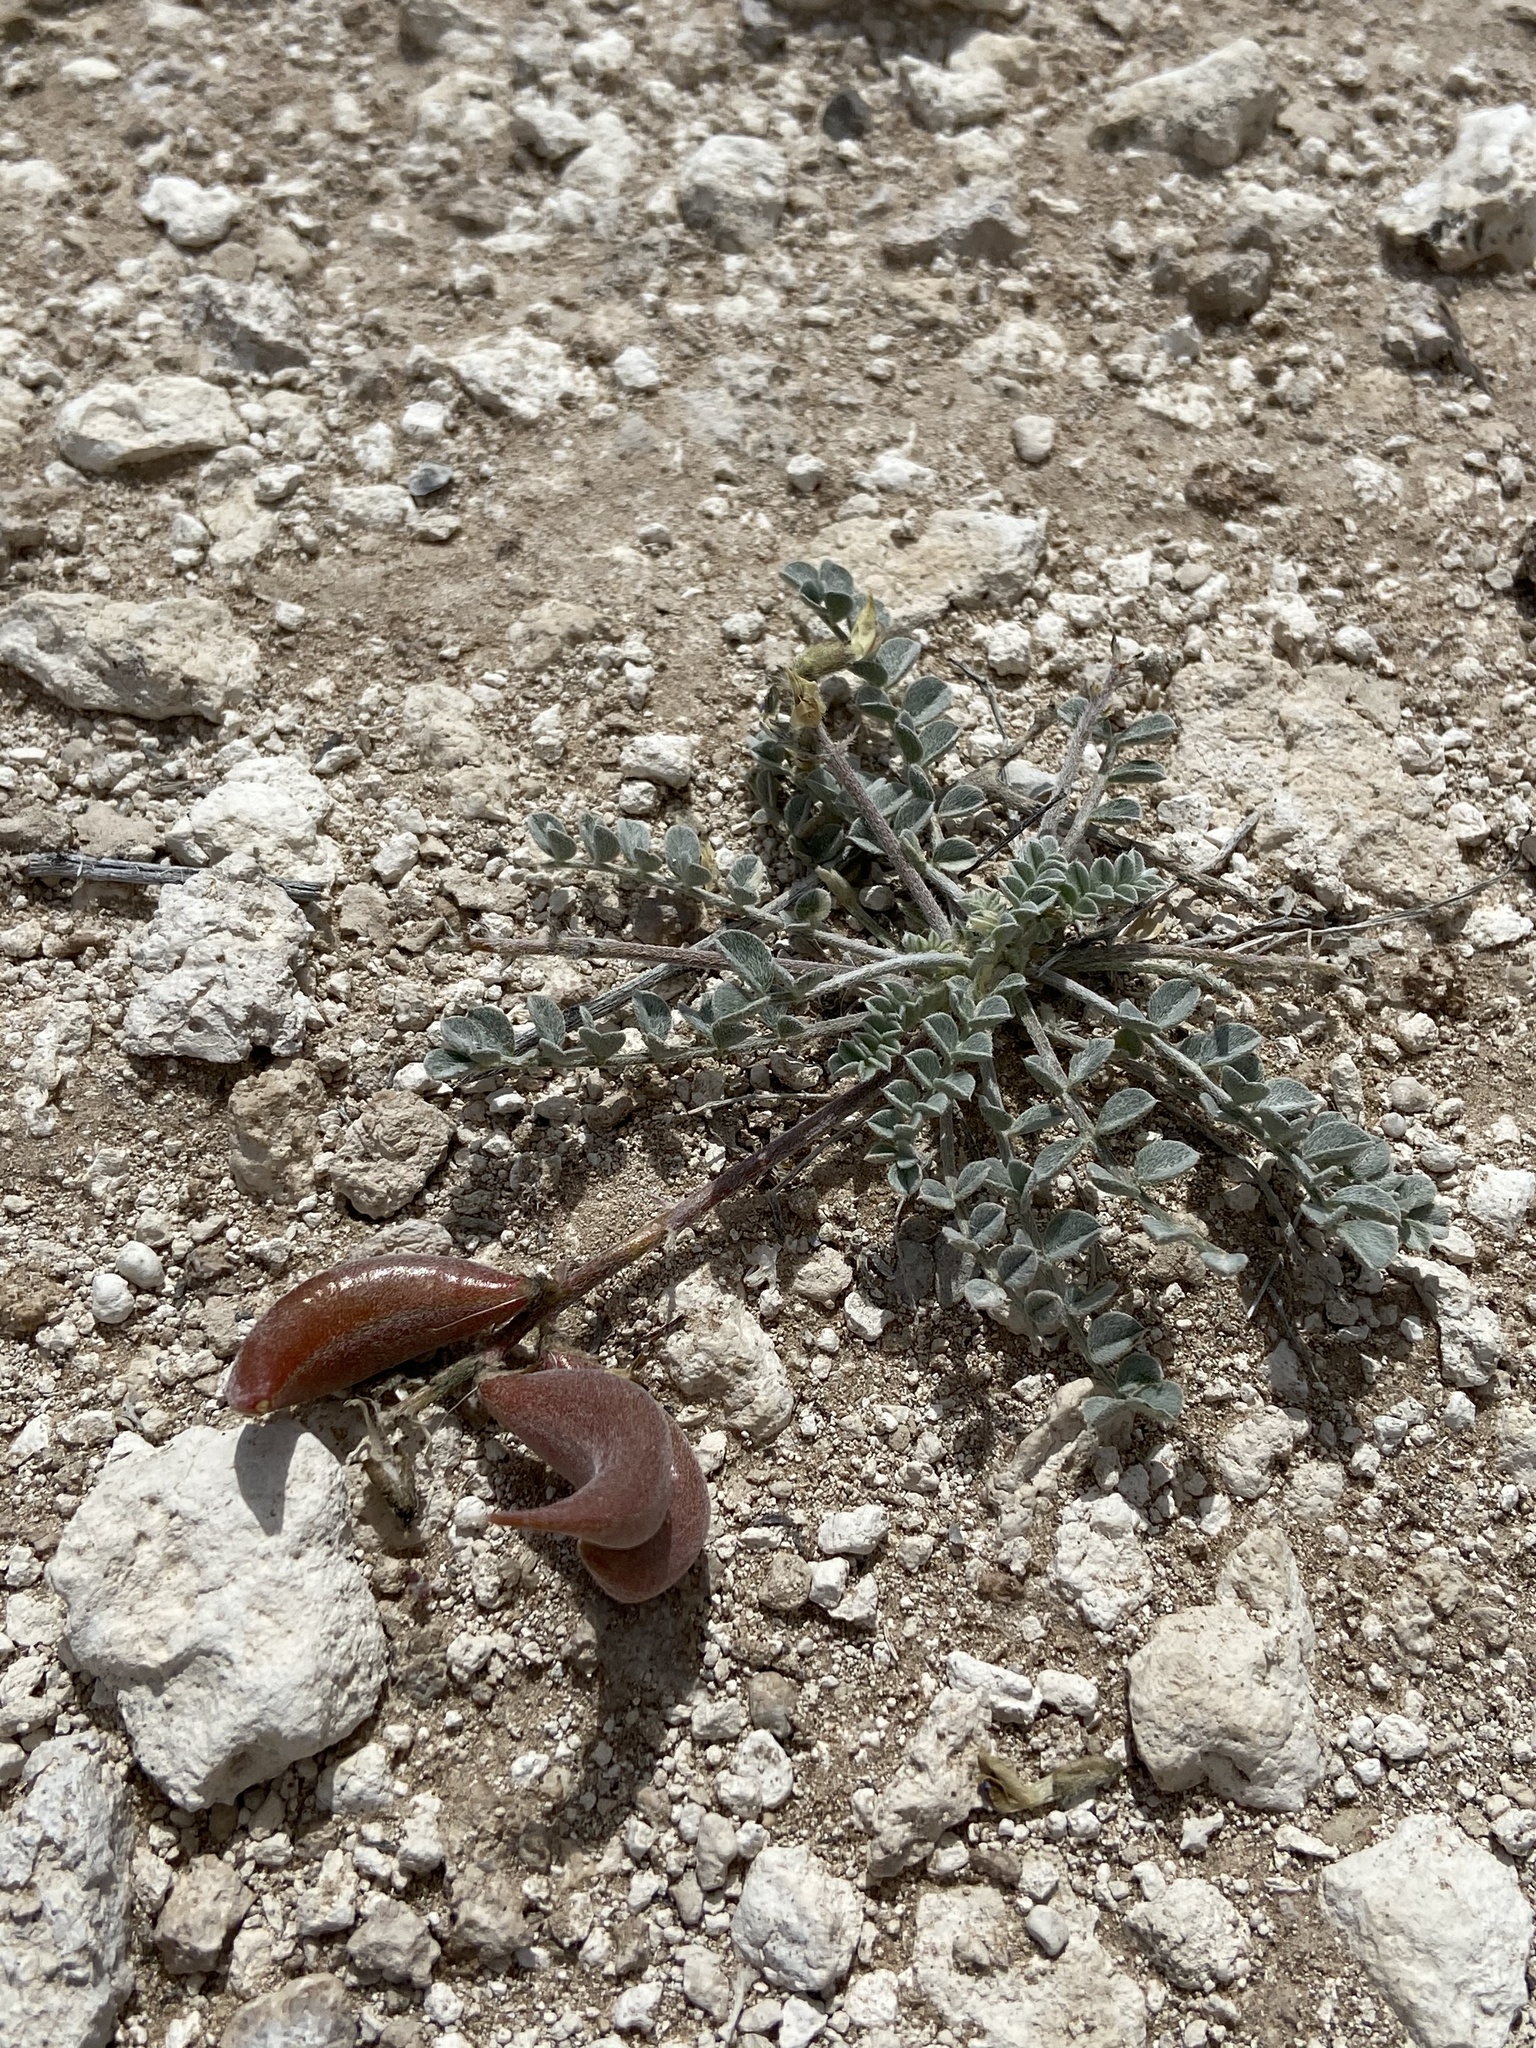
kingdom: Plantae
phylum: Tracheophyta
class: Magnoliopsida
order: Fabales
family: Fabaceae
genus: Astragalus
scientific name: Astragalus tidestromii
